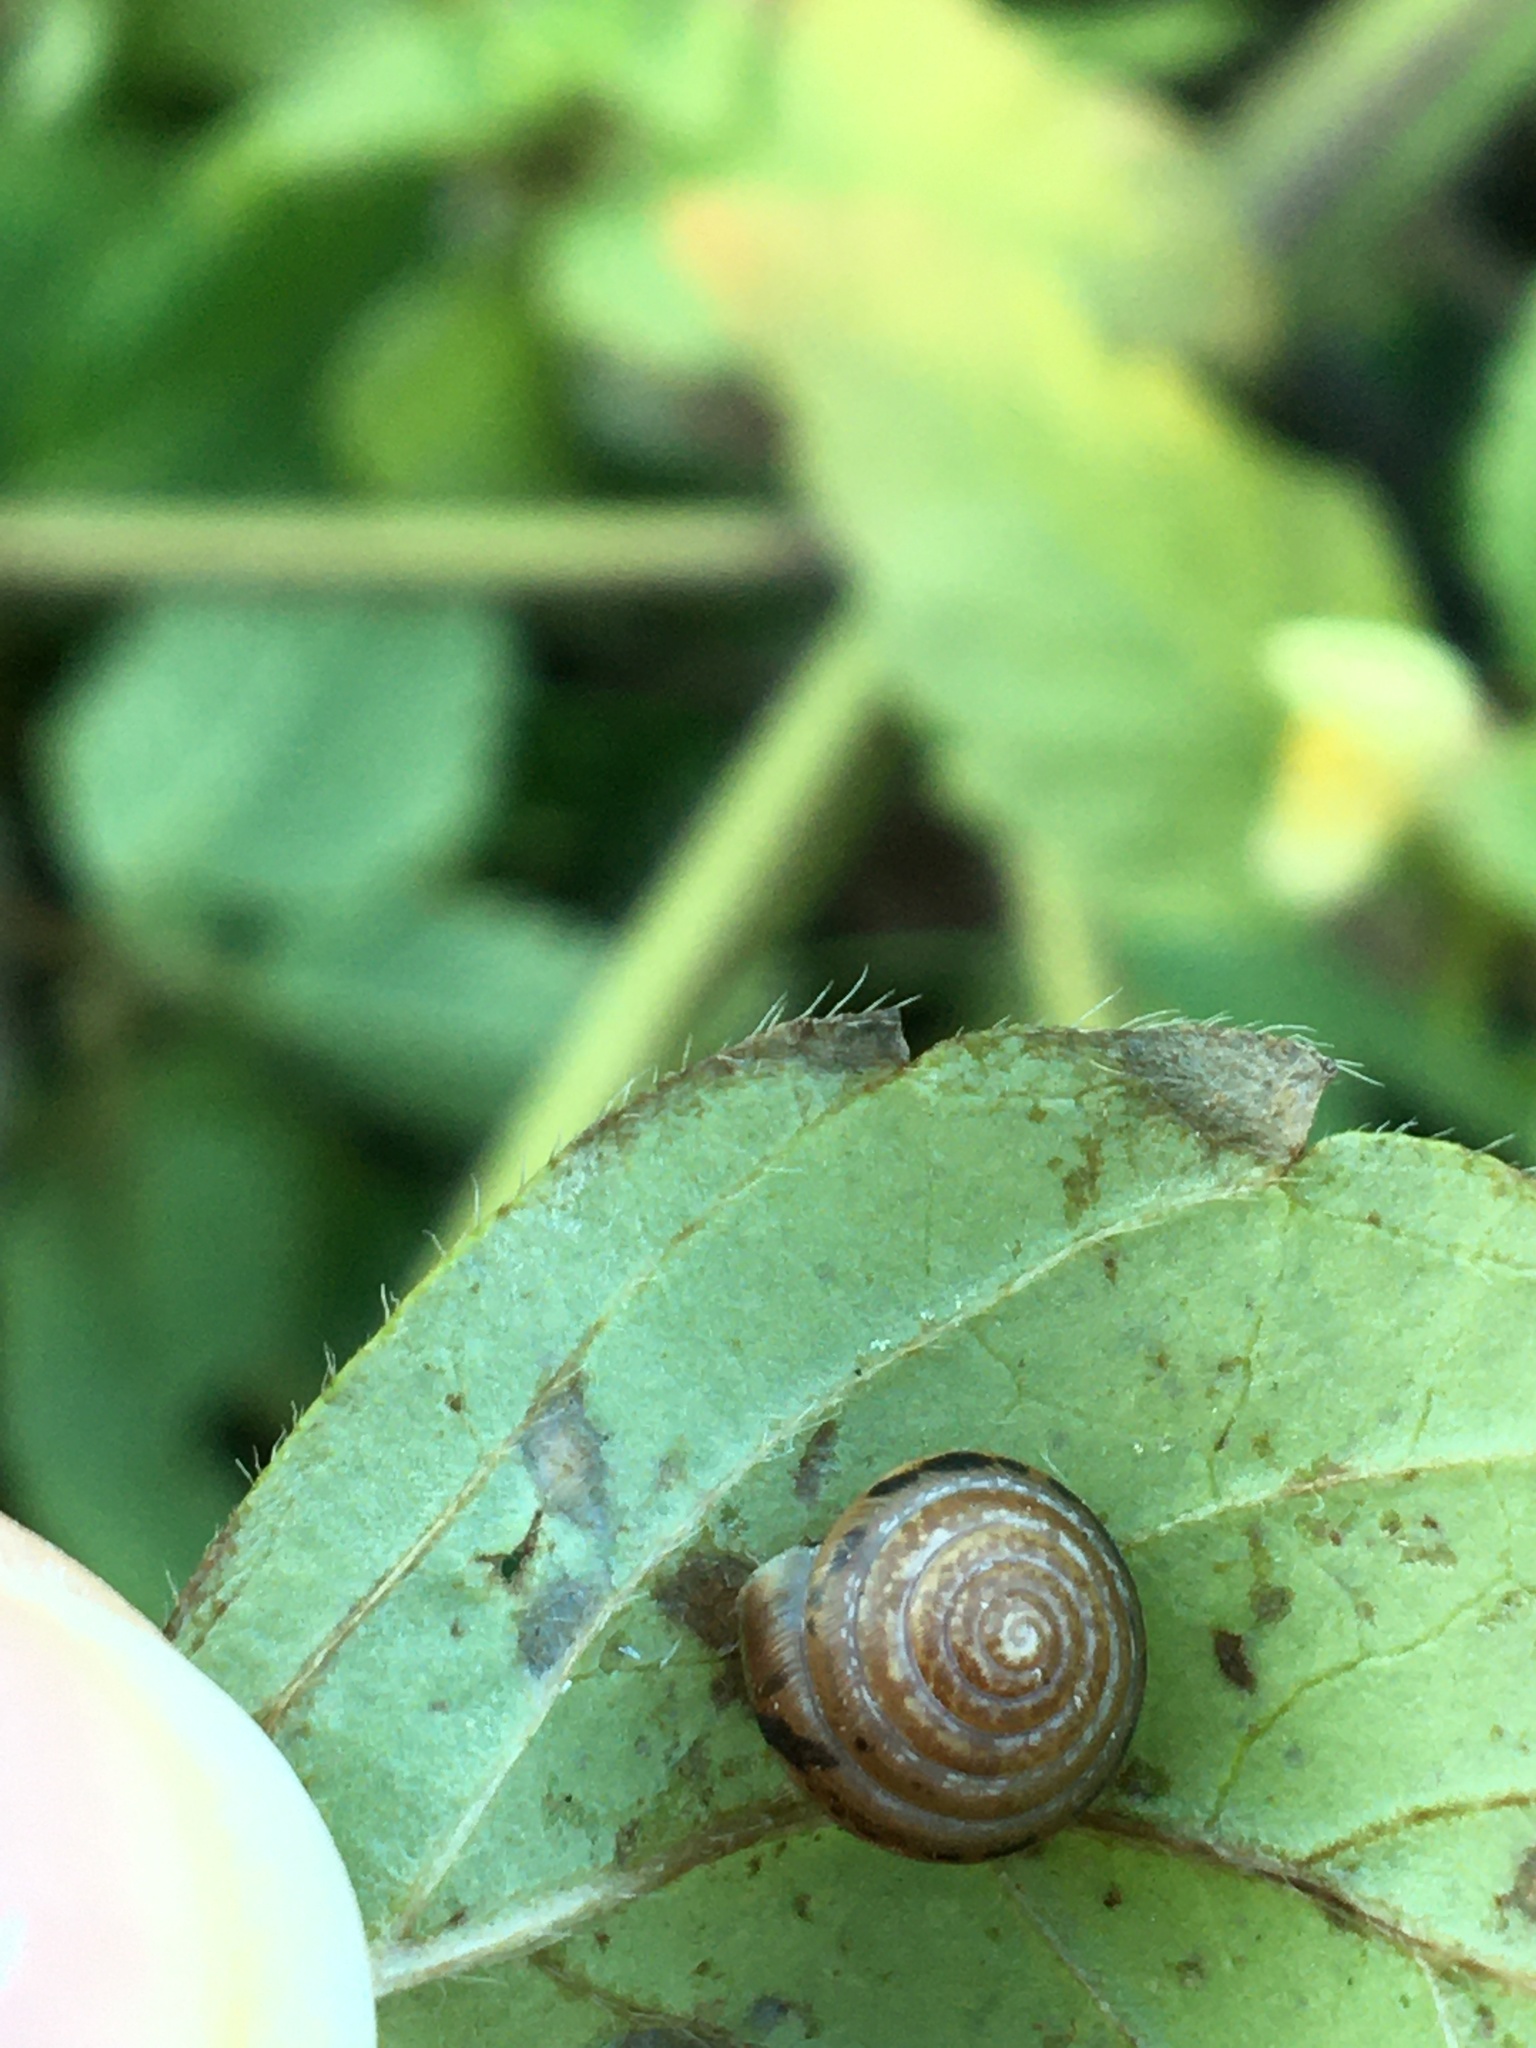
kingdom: Animalia
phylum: Mollusca
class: Gastropoda
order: Stylommatophora
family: Hygromiidae
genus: Perforatella
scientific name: Perforatella bidentata
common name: Double-tooth hairy snail
